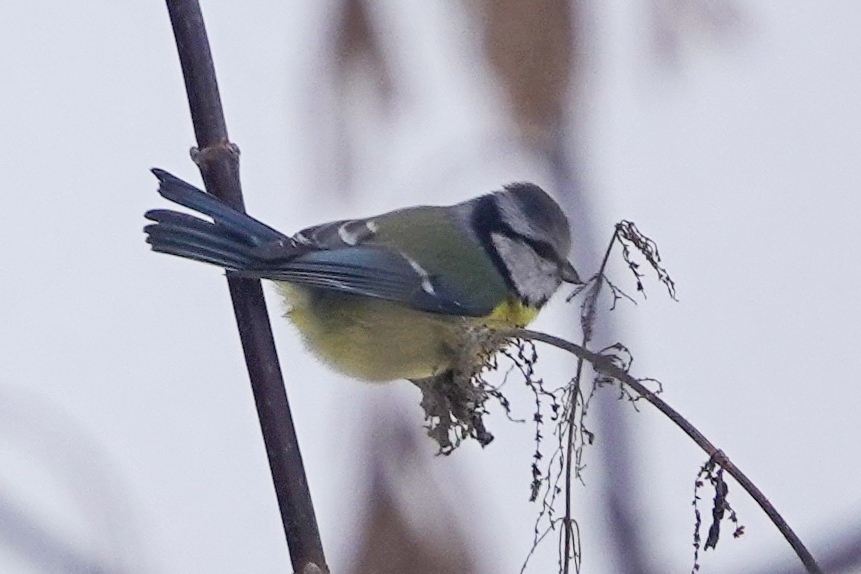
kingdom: Animalia
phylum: Chordata
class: Aves
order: Passeriformes
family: Paridae
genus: Cyanistes
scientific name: Cyanistes caeruleus
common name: Eurasian blue tit
